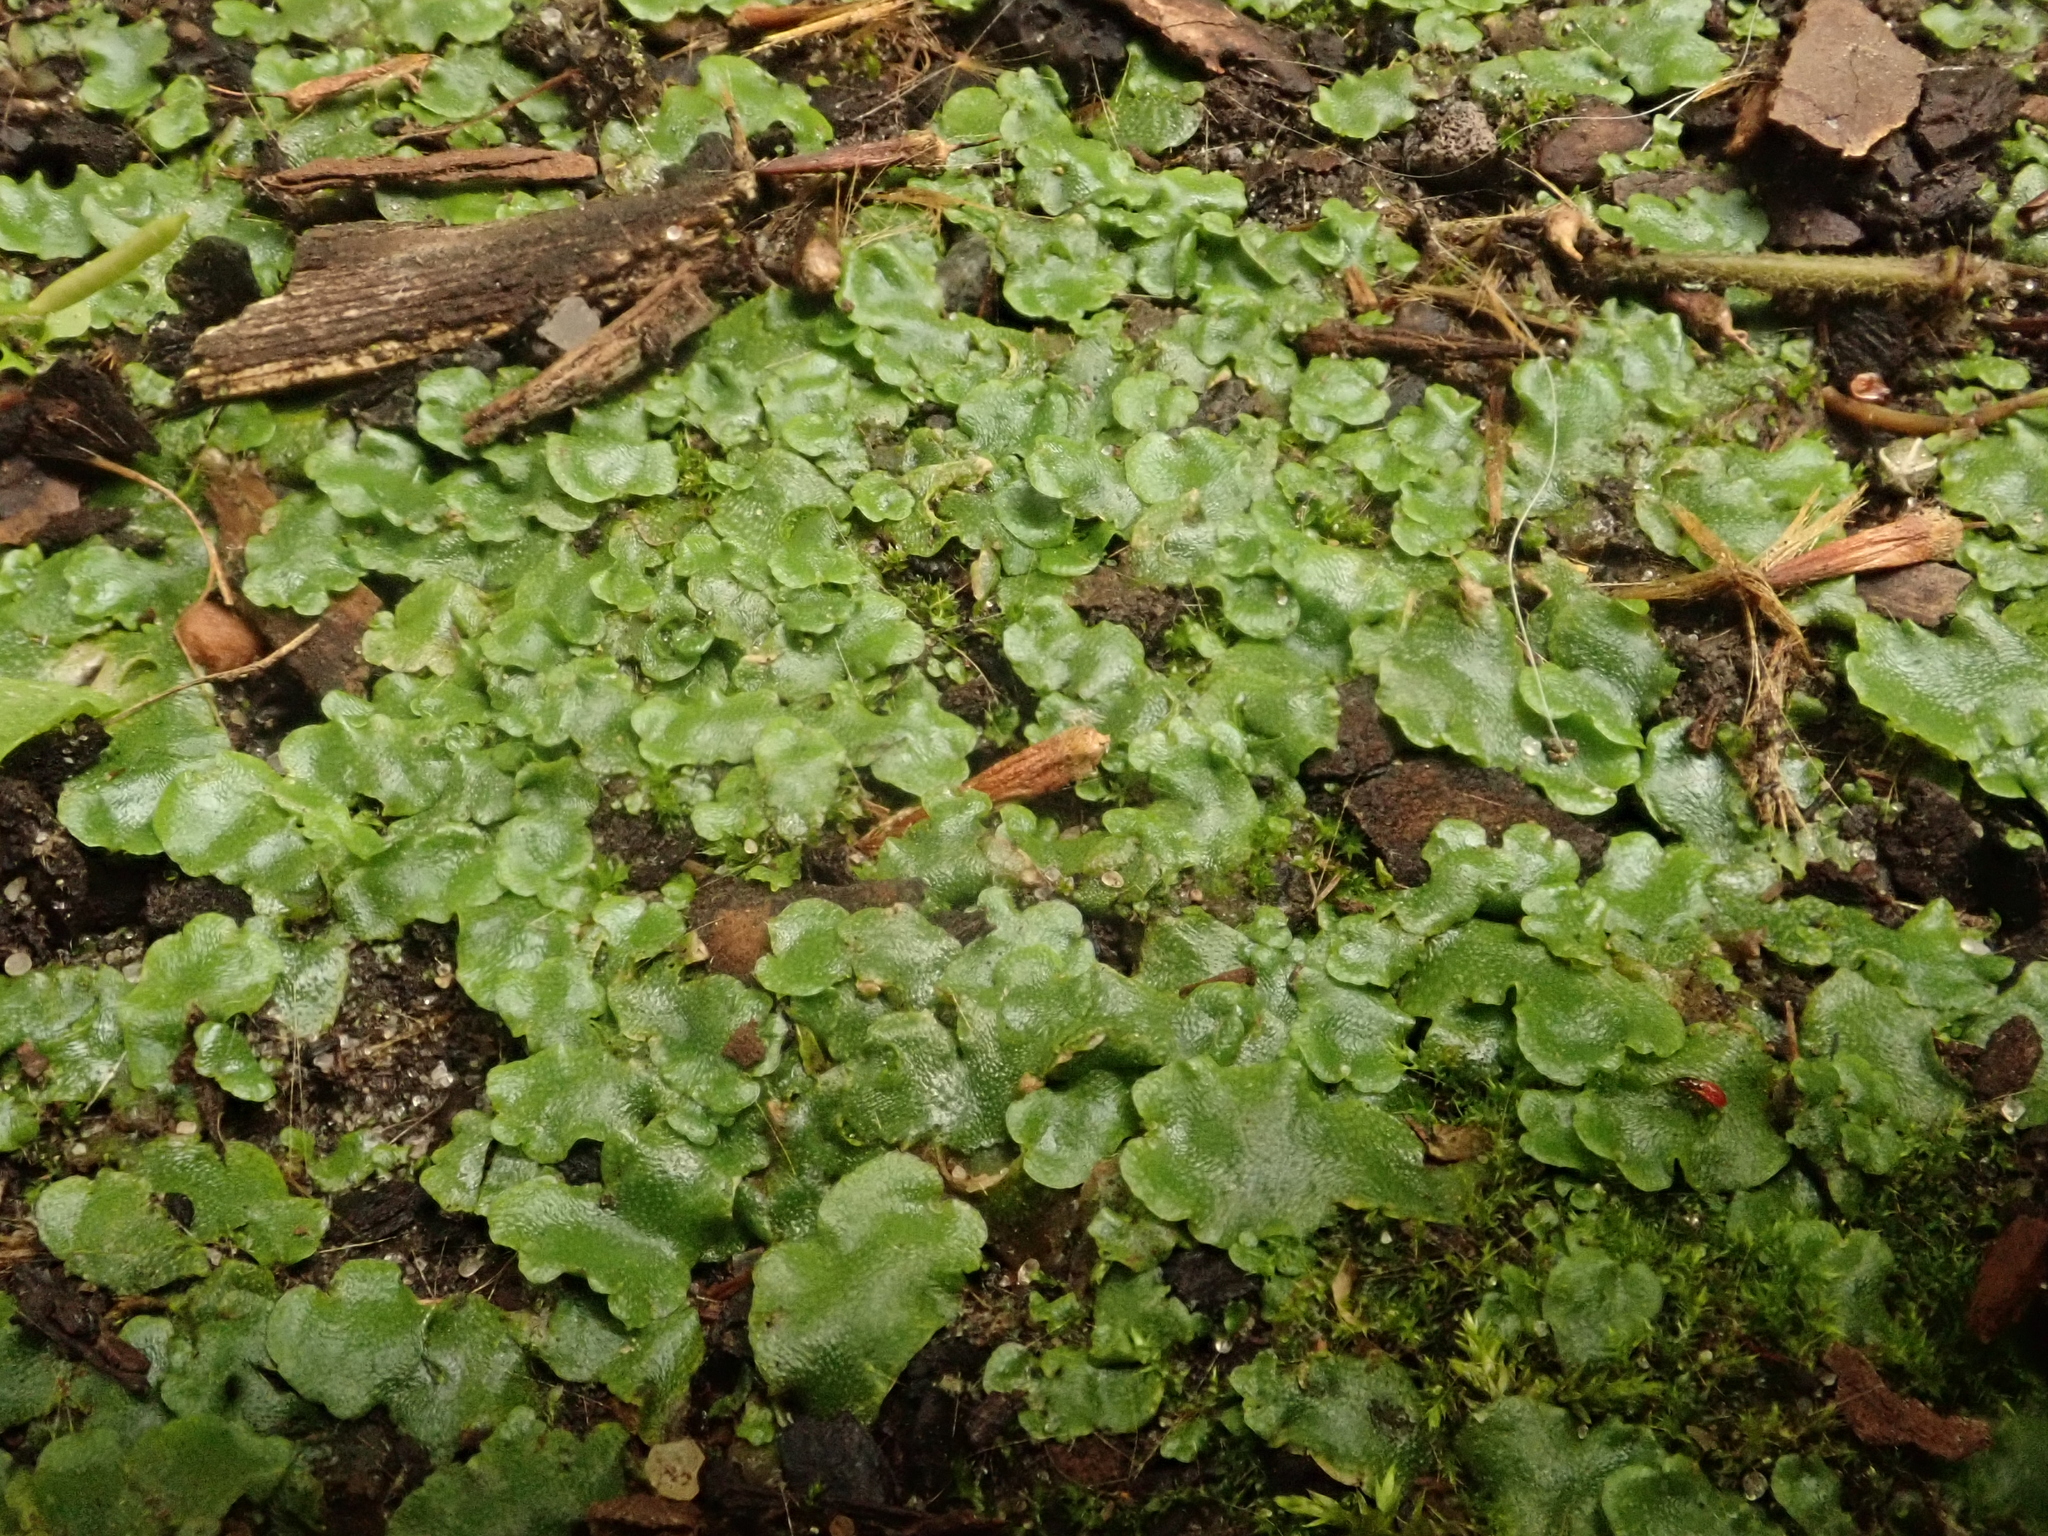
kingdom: Plantae
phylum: Marchantiophyta
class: Marchantiopsida
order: Lunulariales
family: Lunulariaceae
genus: Lunularia
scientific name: Lunularia cruciata
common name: Crescent-cup liverwort
